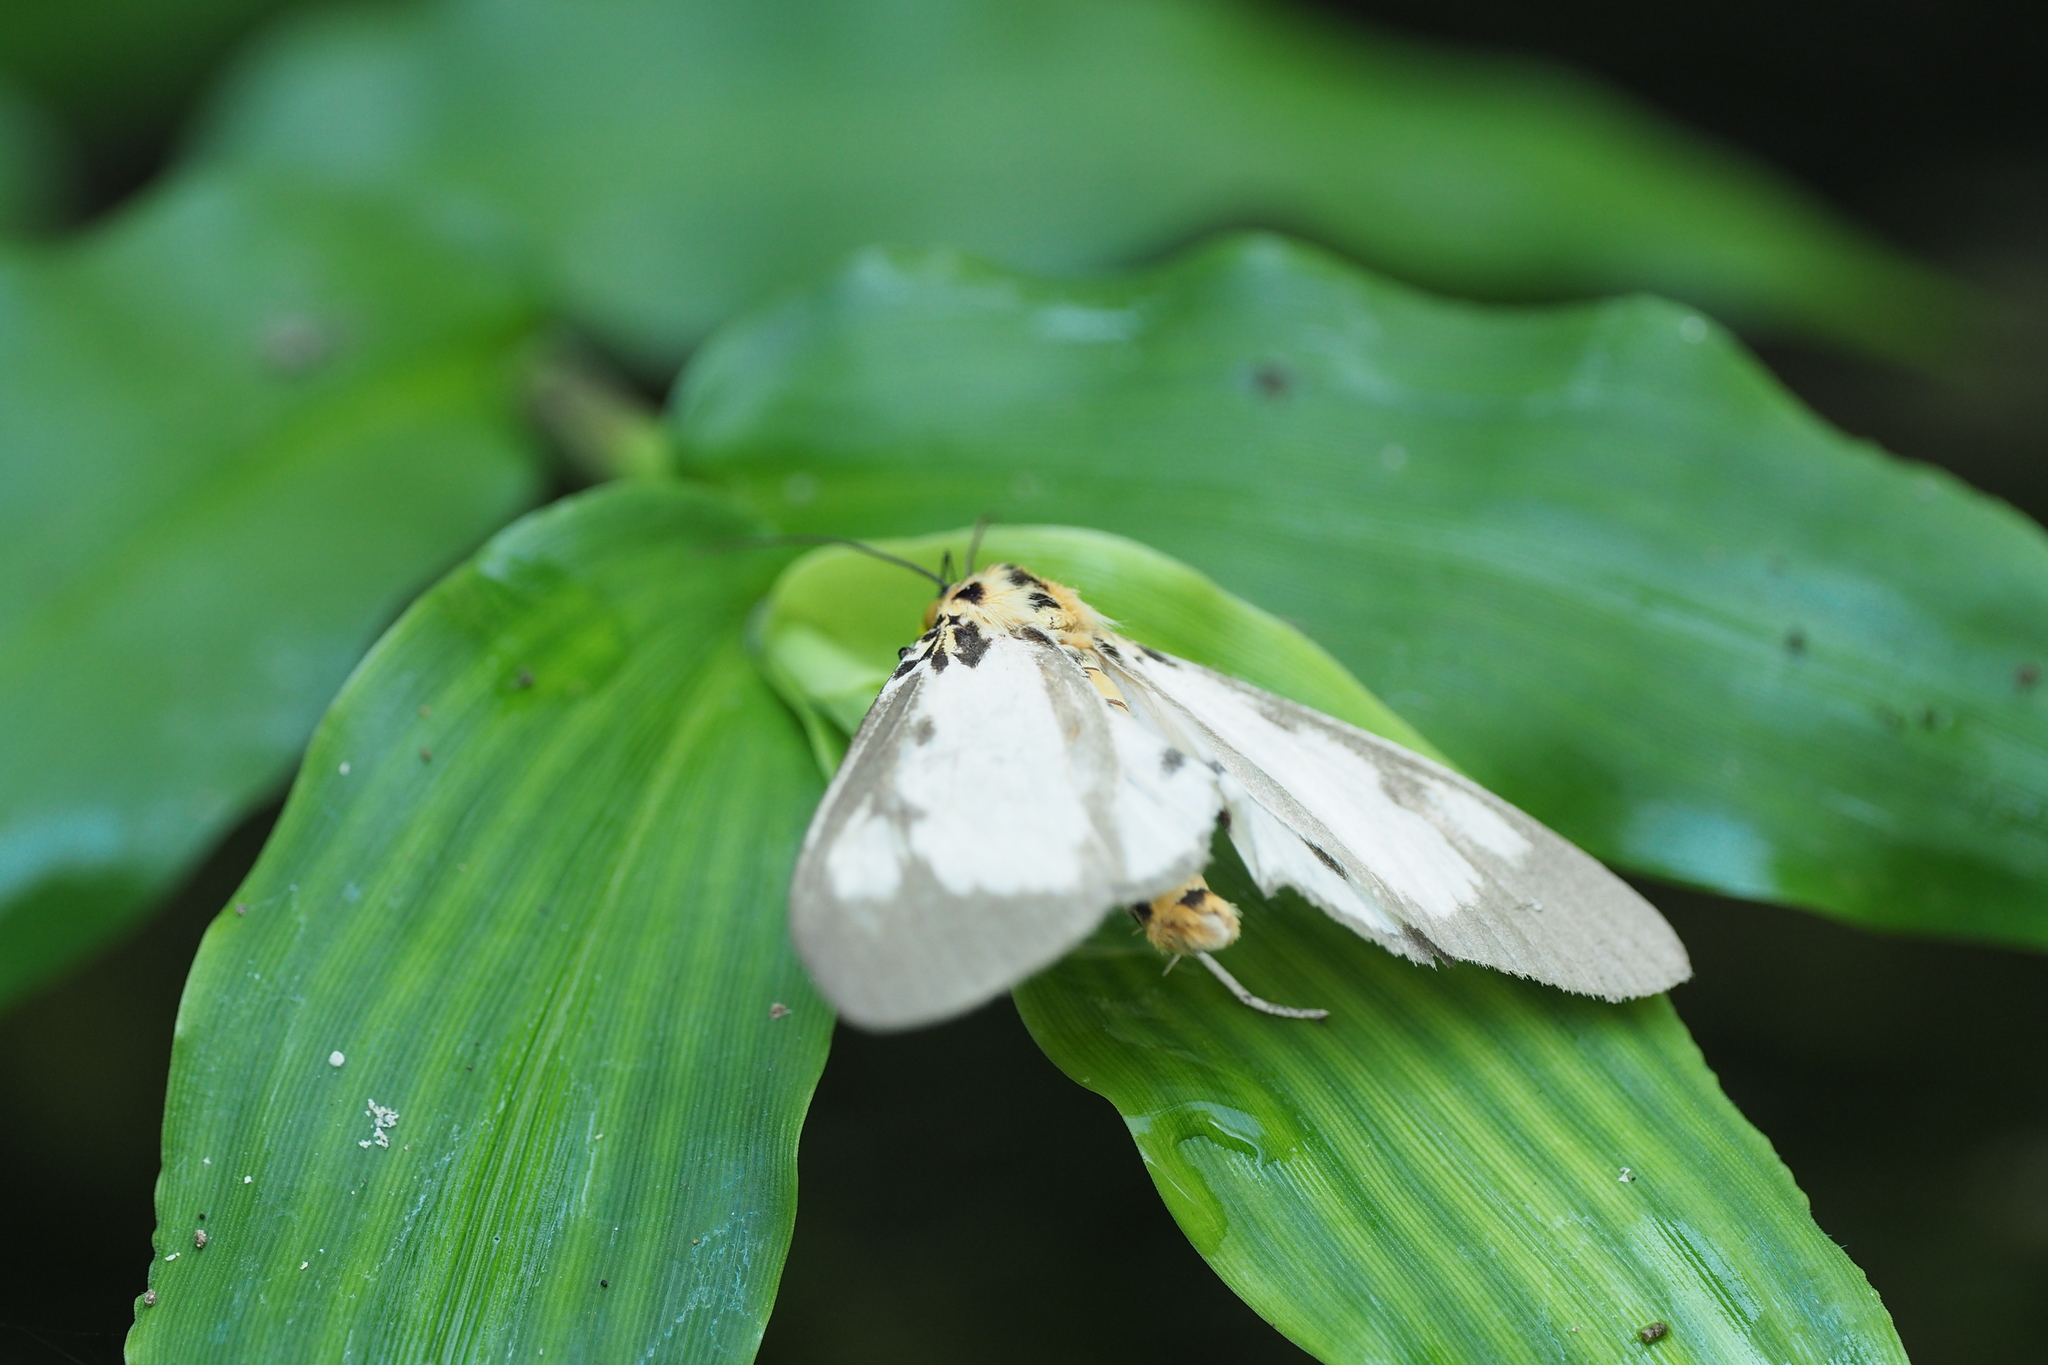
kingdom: Animalia
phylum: Arthropoda
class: Insecta
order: Lepidoptera
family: Erebidae
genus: Asota
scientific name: Asota plana
